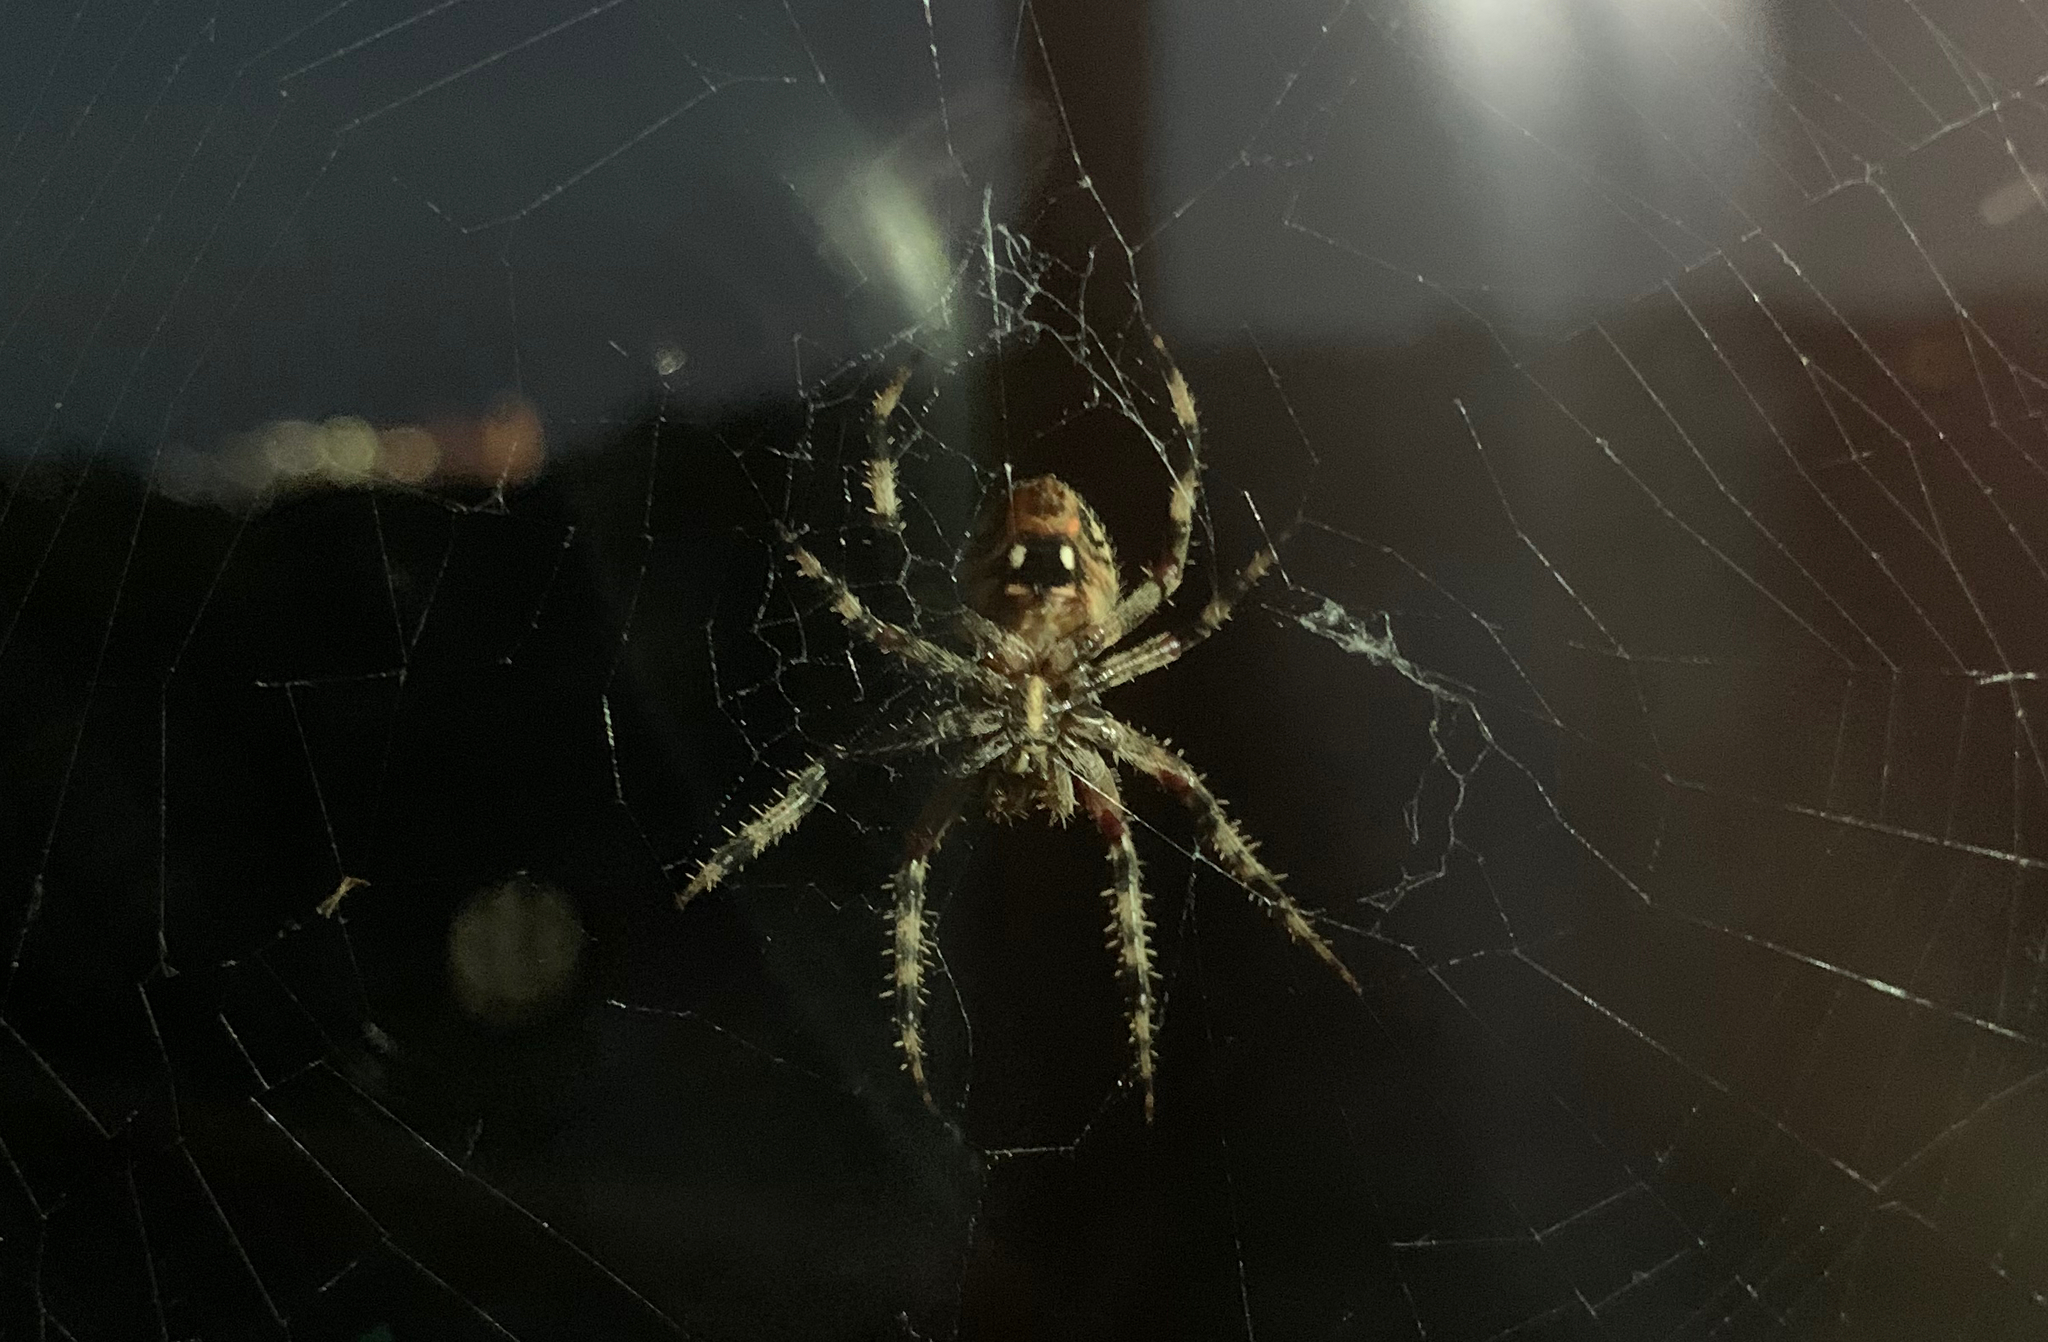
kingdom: Animalia
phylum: Arthropoda
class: Arachnida
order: Araneae
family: Araneidae
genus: Neoscona
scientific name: Neoscona crucifera
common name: Spotted orbweaver
